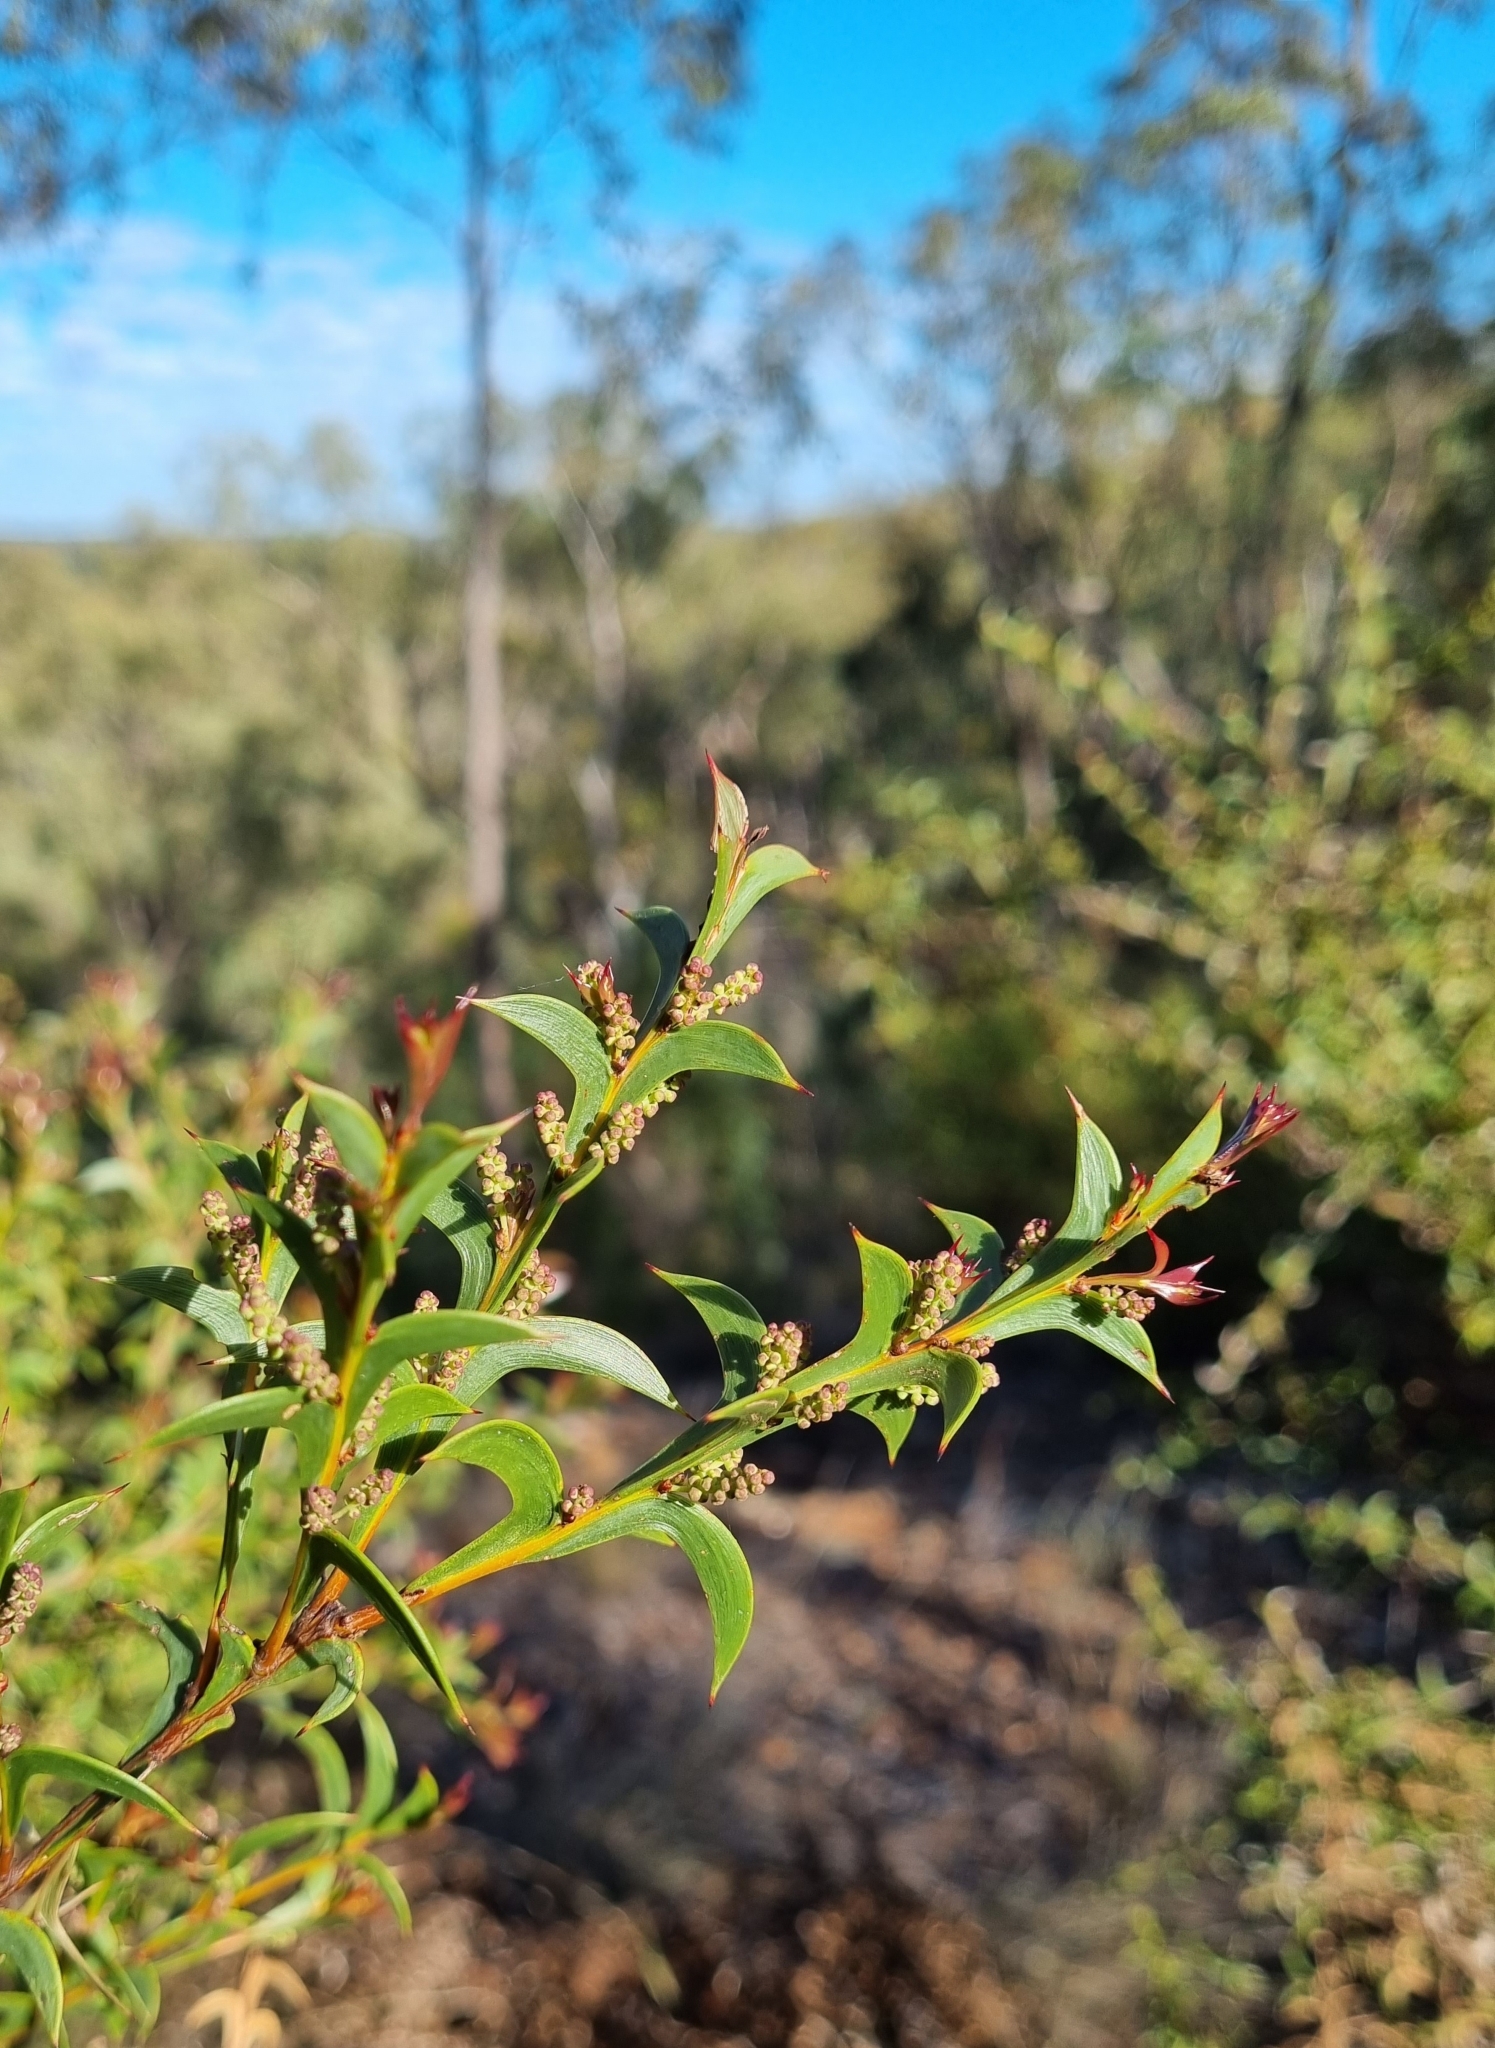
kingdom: Plantae
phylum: Tracheophyta
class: Magnoliopsida
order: Fabales
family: Fabaceae
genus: Acacia
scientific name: Acacia triptera
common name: Spur-wing wattle
